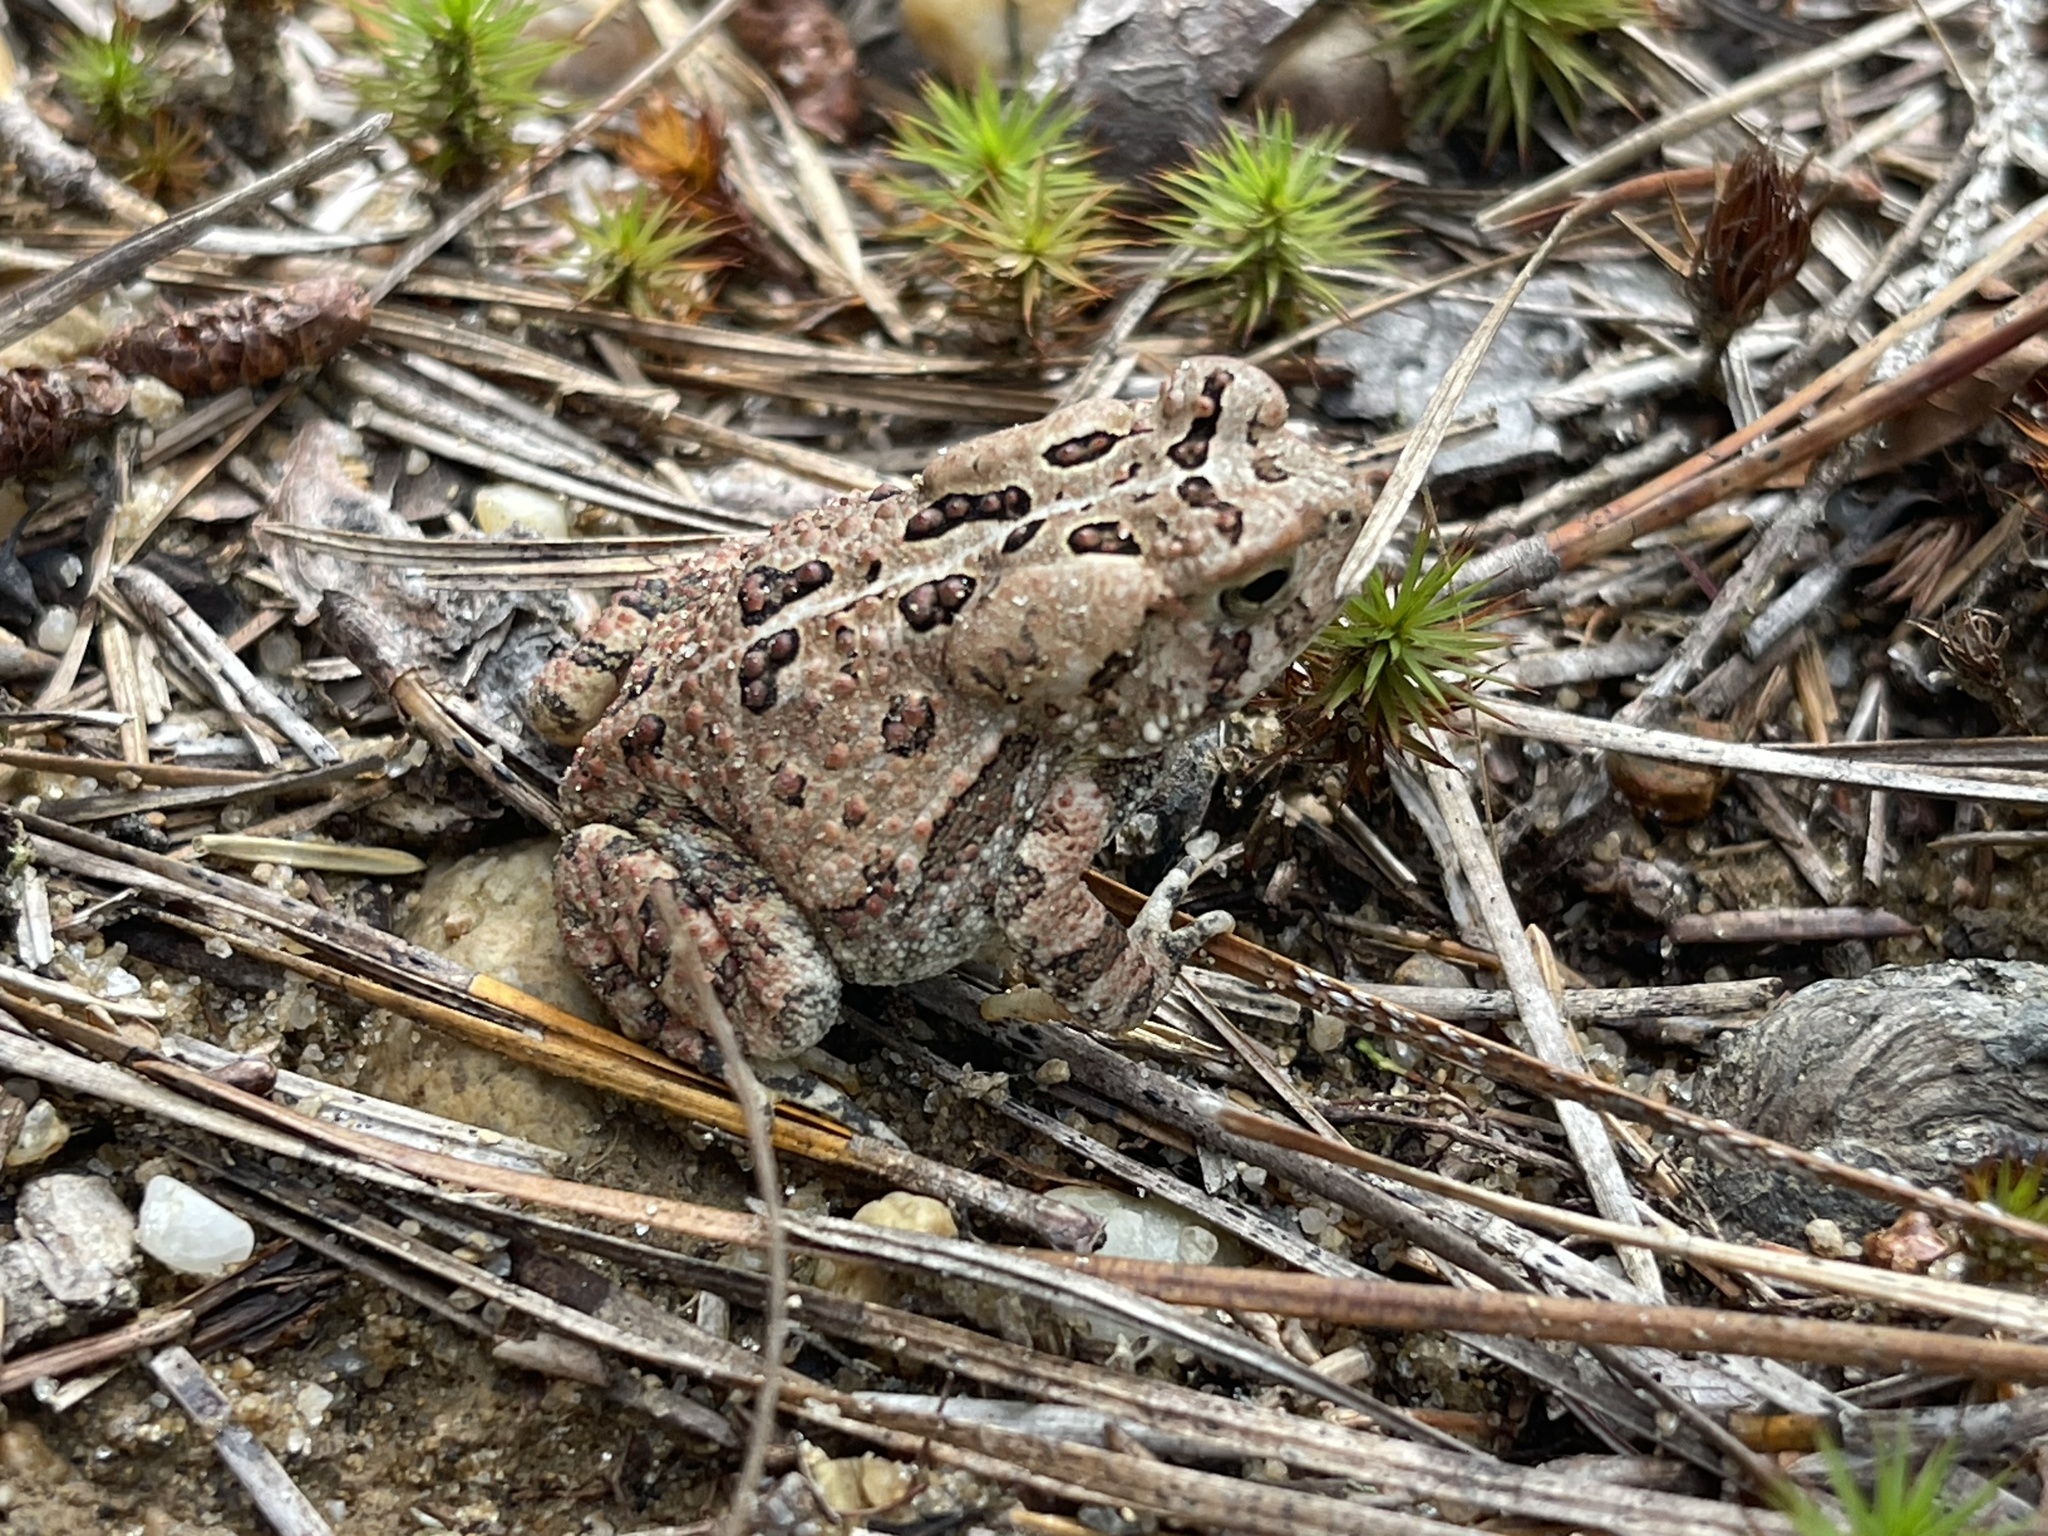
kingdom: Animalia
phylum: Chordata
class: Amphibia
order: Anura
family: Bufonidae
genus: Anaxyrus
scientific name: Anaxyrus fowleri
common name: Fowler's toad
